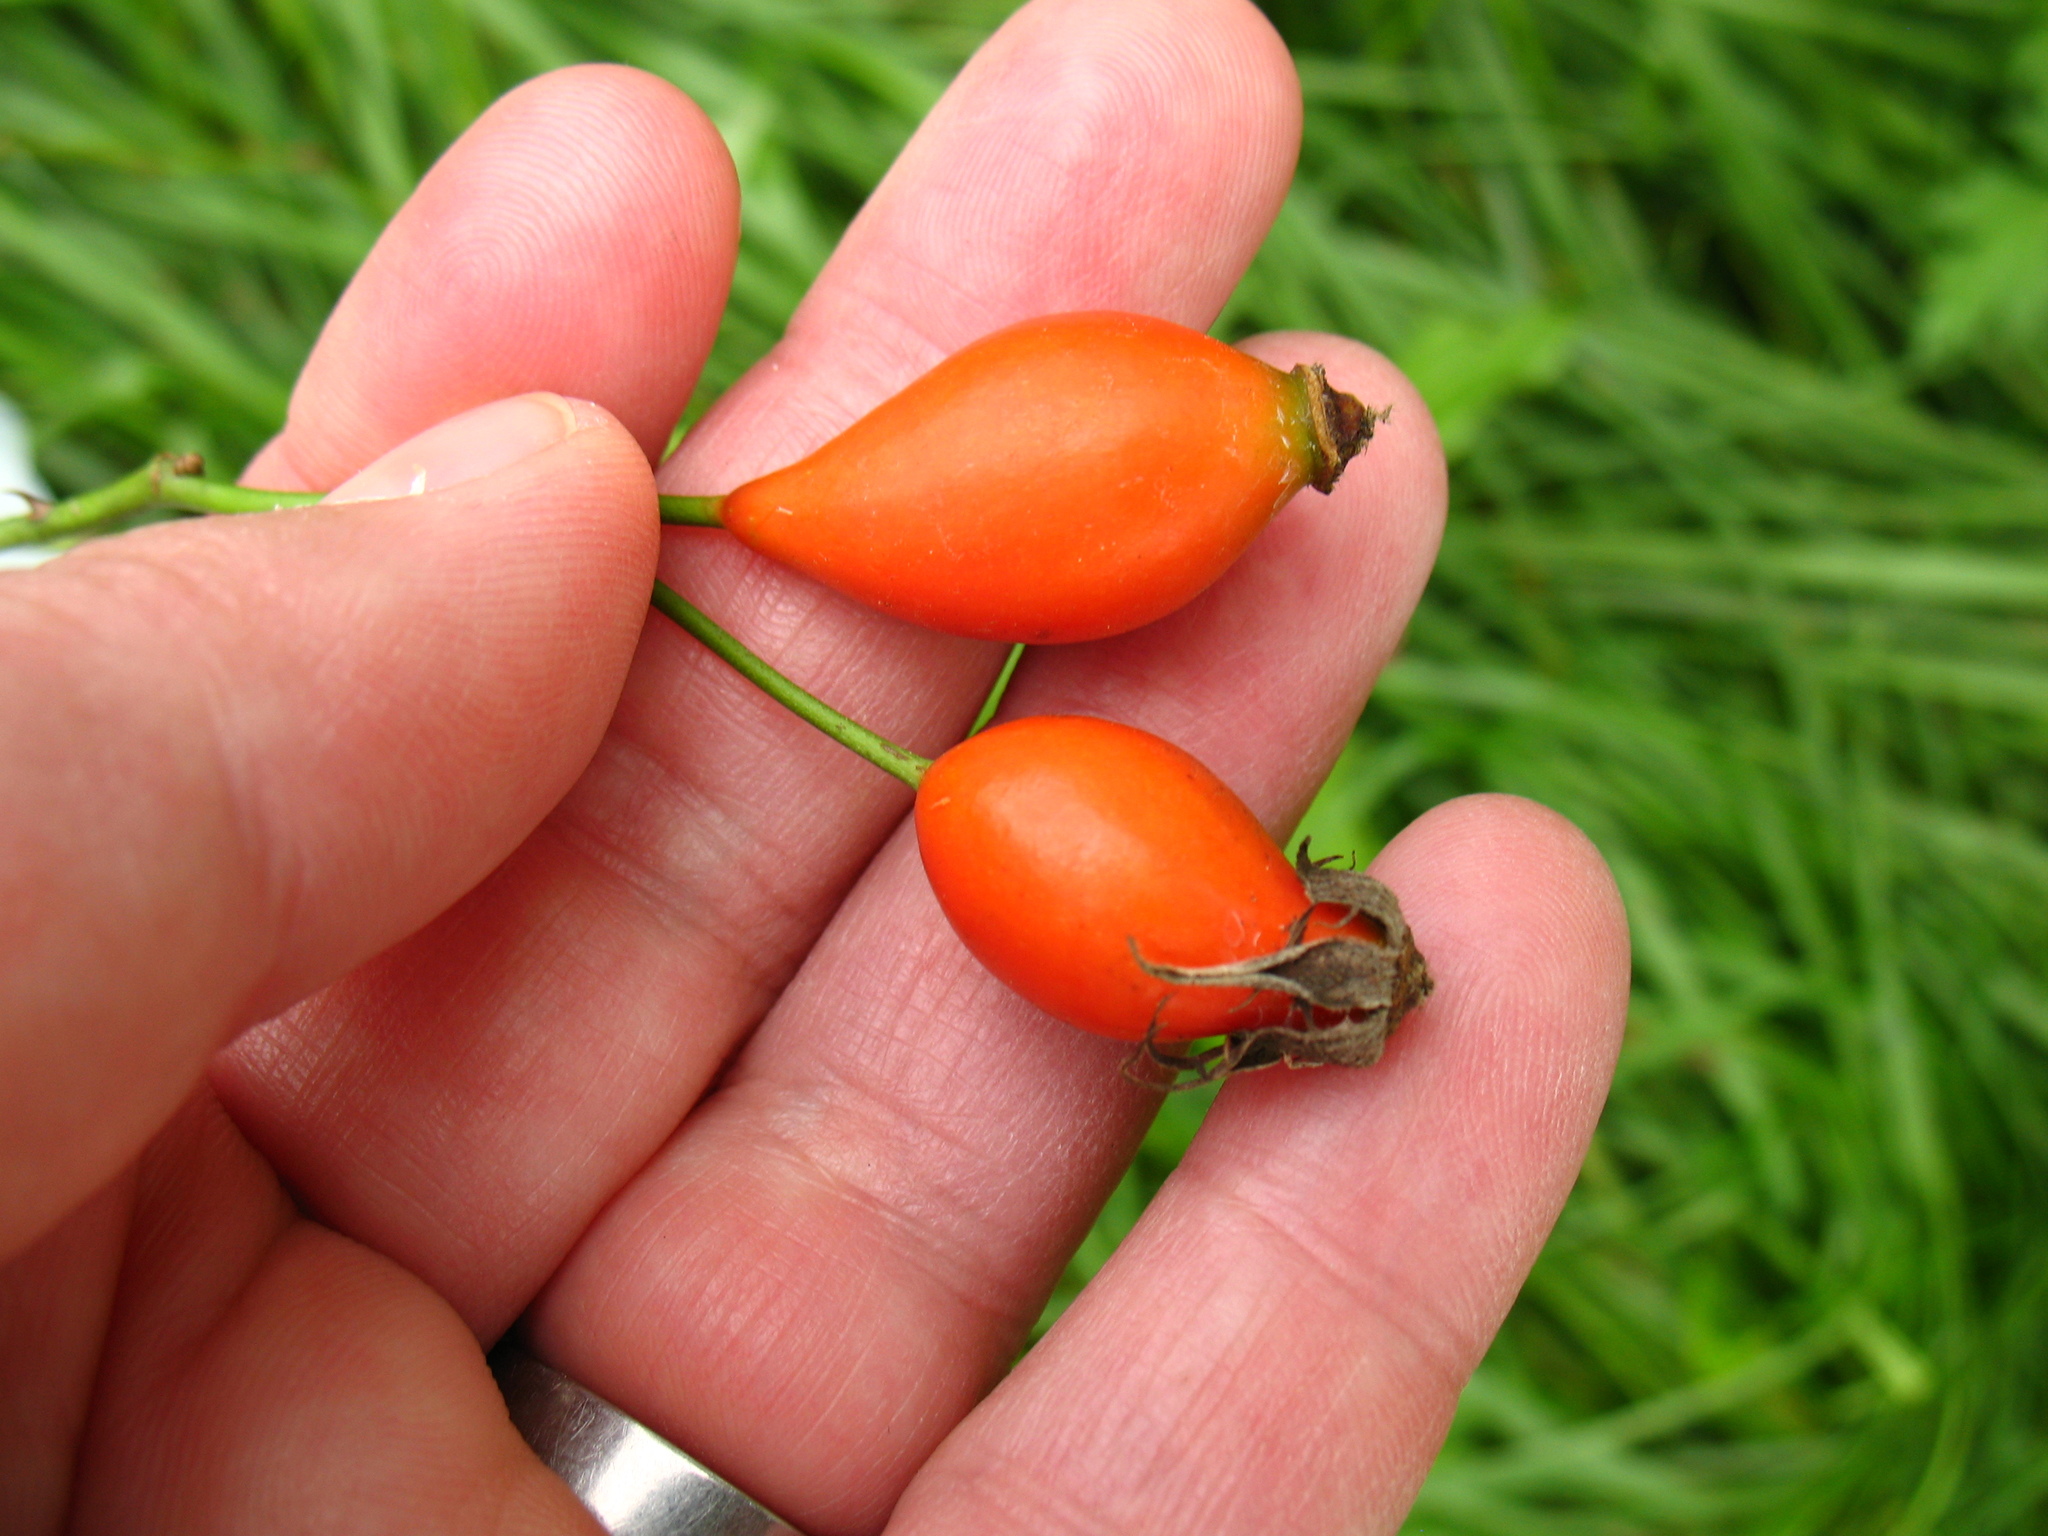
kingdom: Plantae
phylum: Tracheophyta
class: Magnoliopsida
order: Rosales
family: Rosaceae
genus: Rosa
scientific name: Rosa canina
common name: Dog rose
